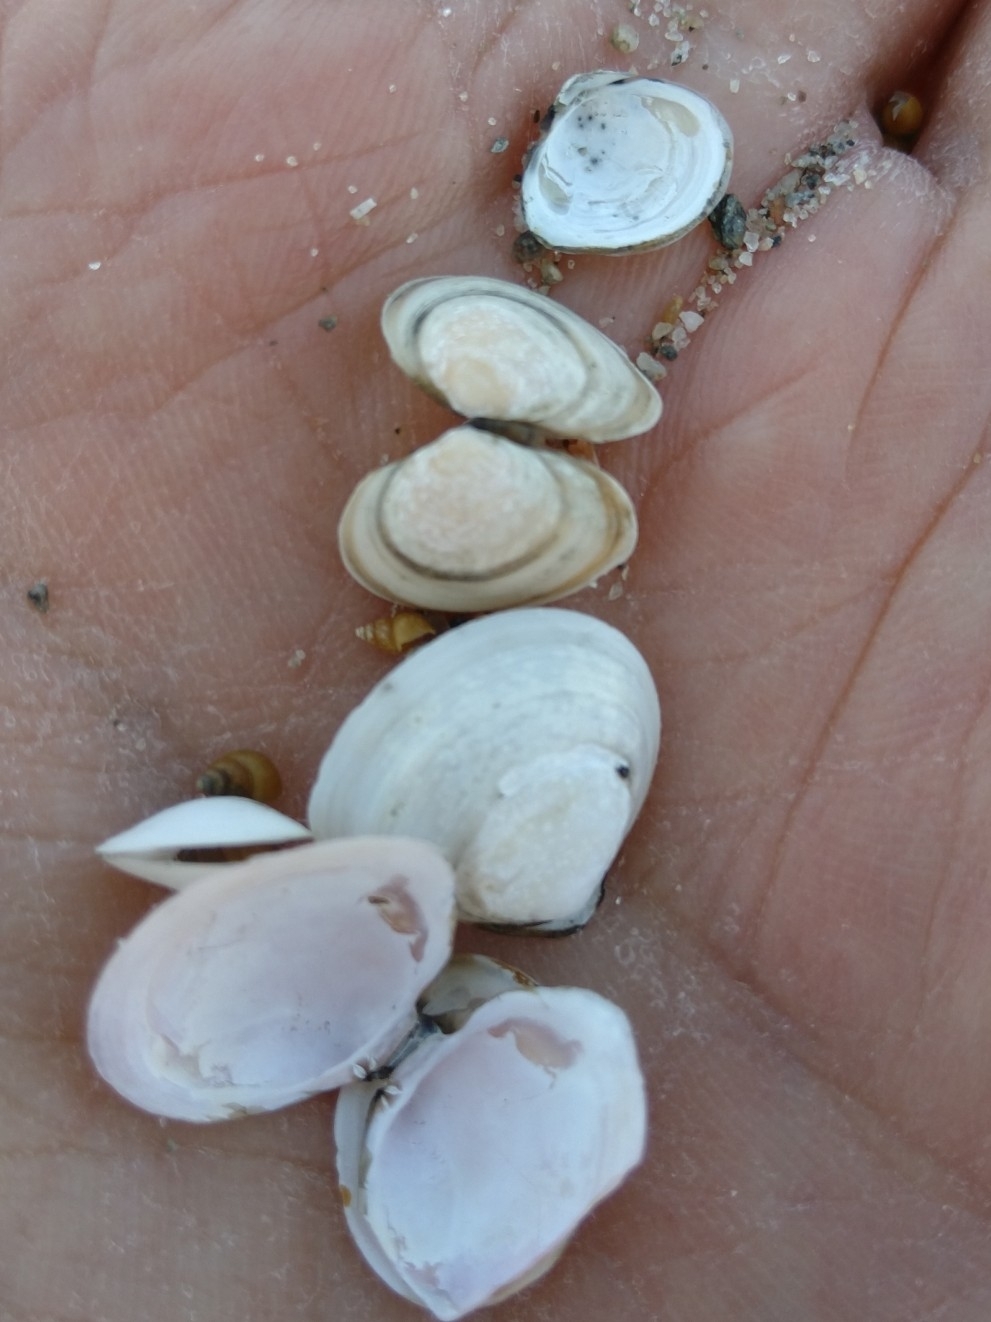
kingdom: Animalia
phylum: Mollusca
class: Bivalvia
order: Cardiida
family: Tellinidae
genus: Macoma
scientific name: Macoma balthica
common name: Baltic tellin
